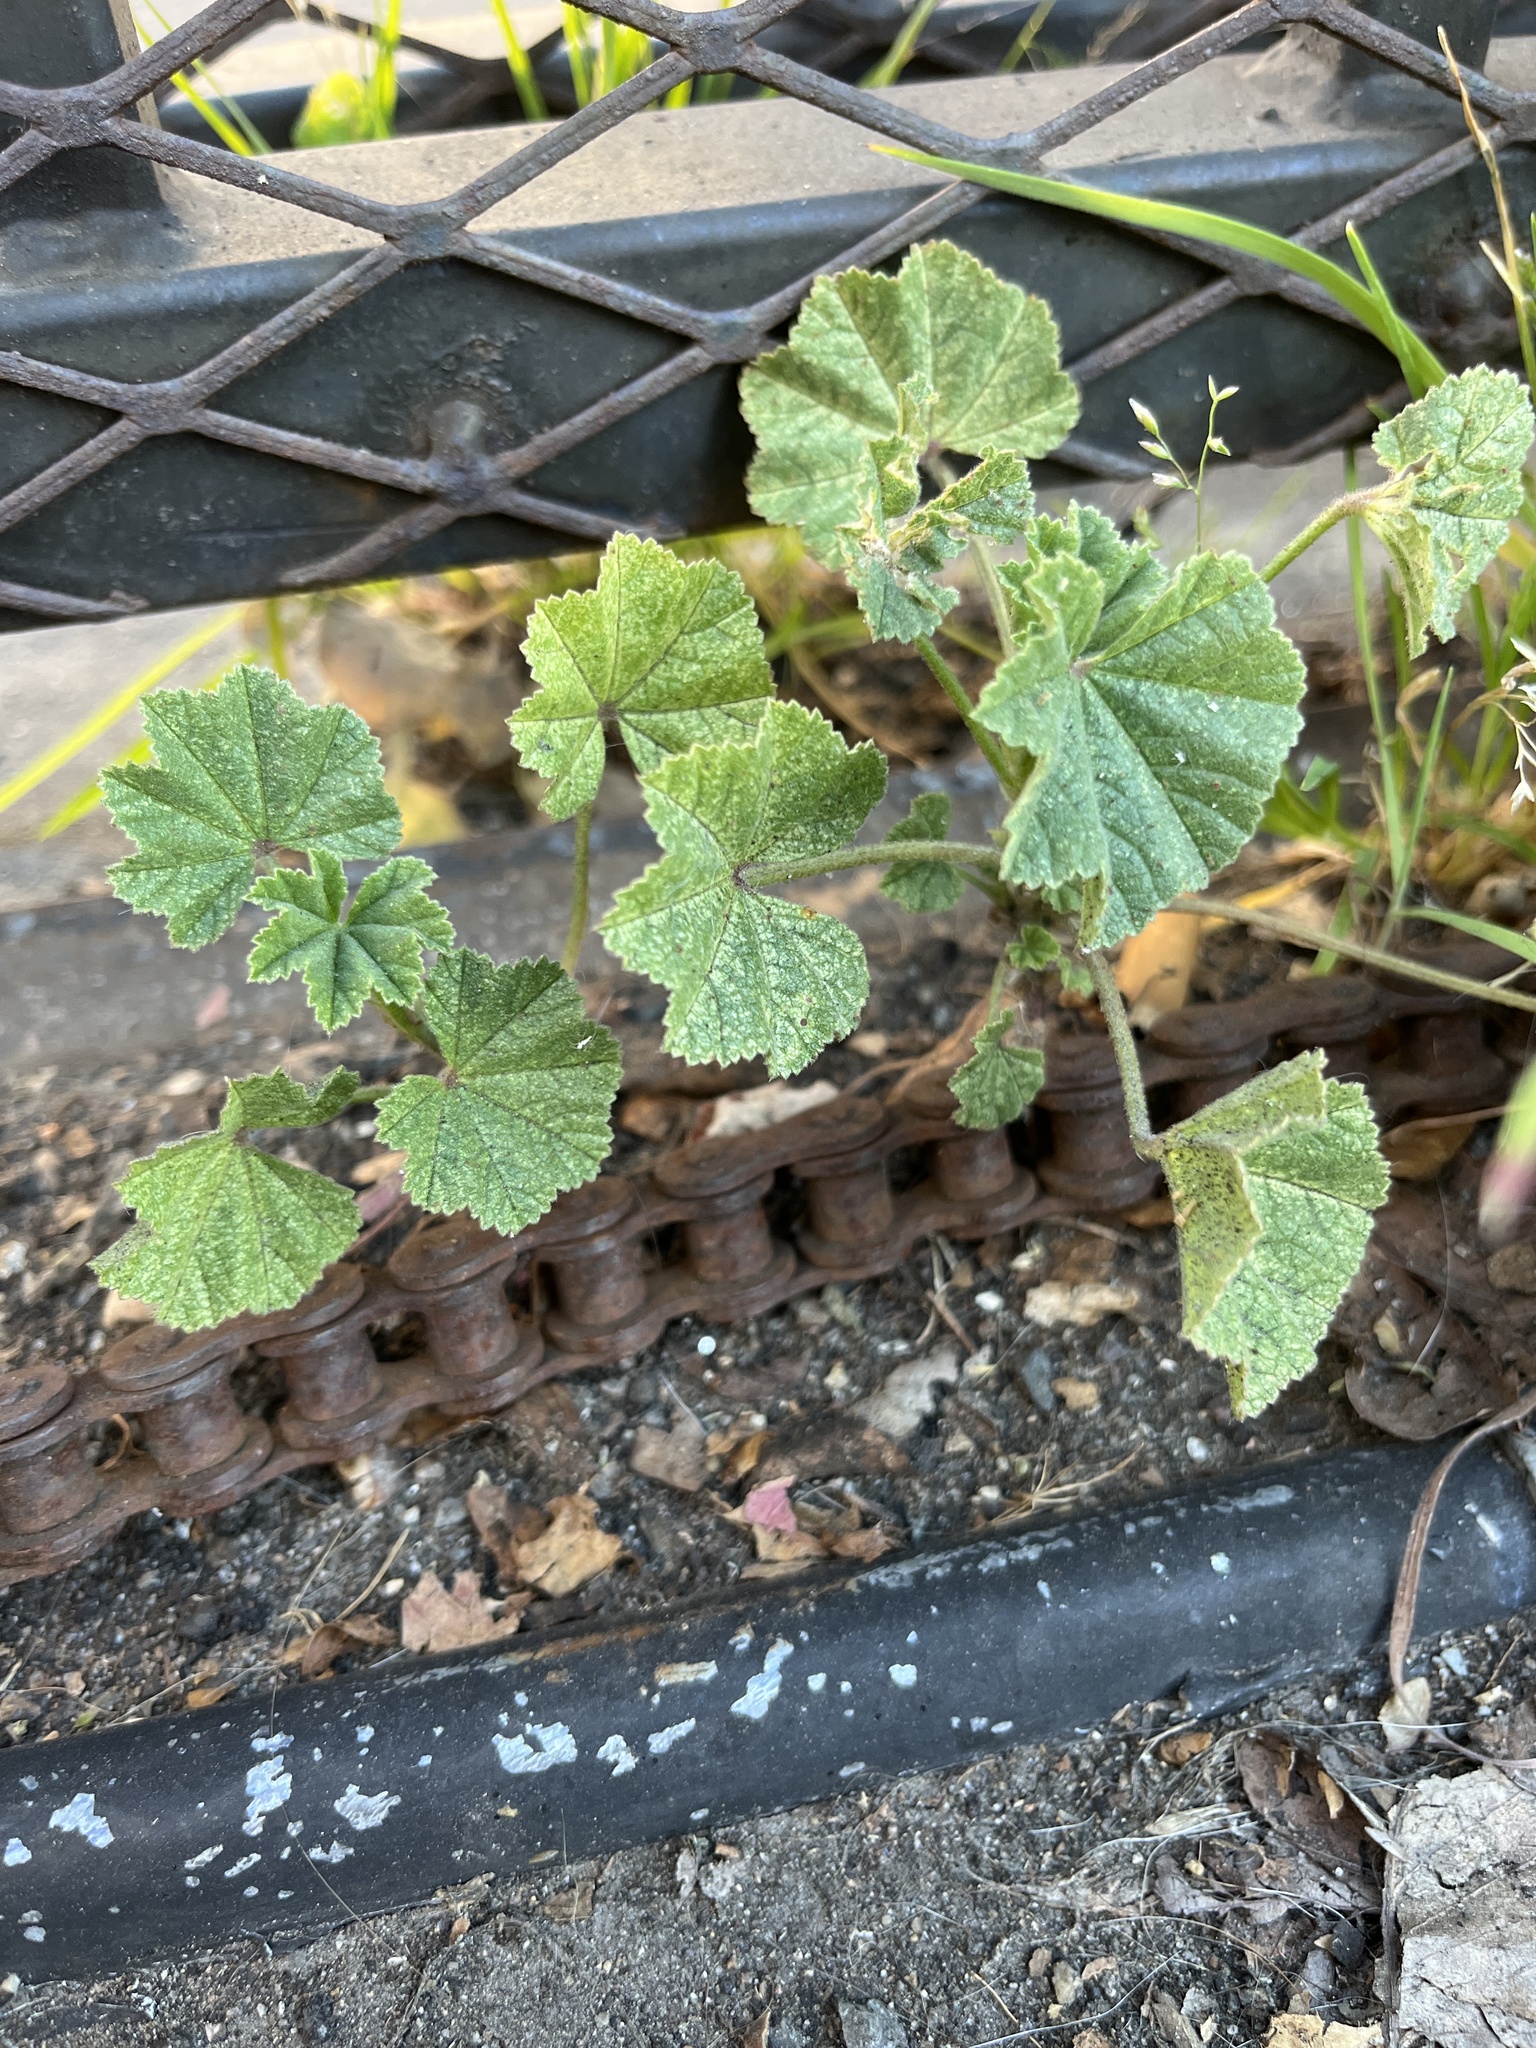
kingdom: Plantae
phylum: Tracheophyta
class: Magnoliopsida
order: Malvales
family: Malvaceae
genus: Malva
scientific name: Malva parviflora
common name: Least mallow
